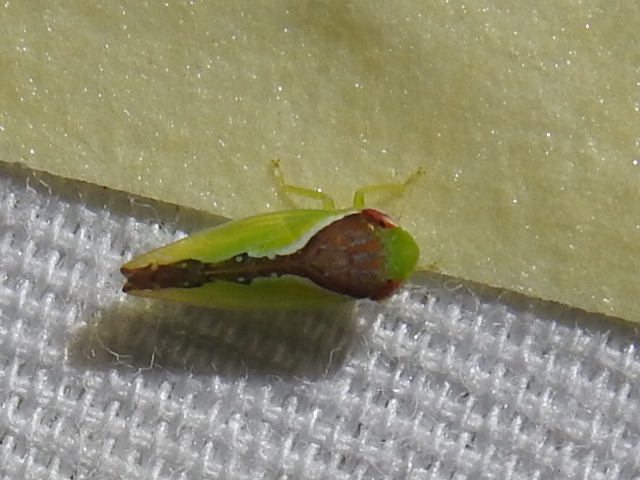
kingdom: Animalia
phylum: Arthropoda
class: Insecta
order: Hemiptera
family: Cicadellidae
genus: Omansobara ing
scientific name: Omansobara ing Omansobara palliolata
